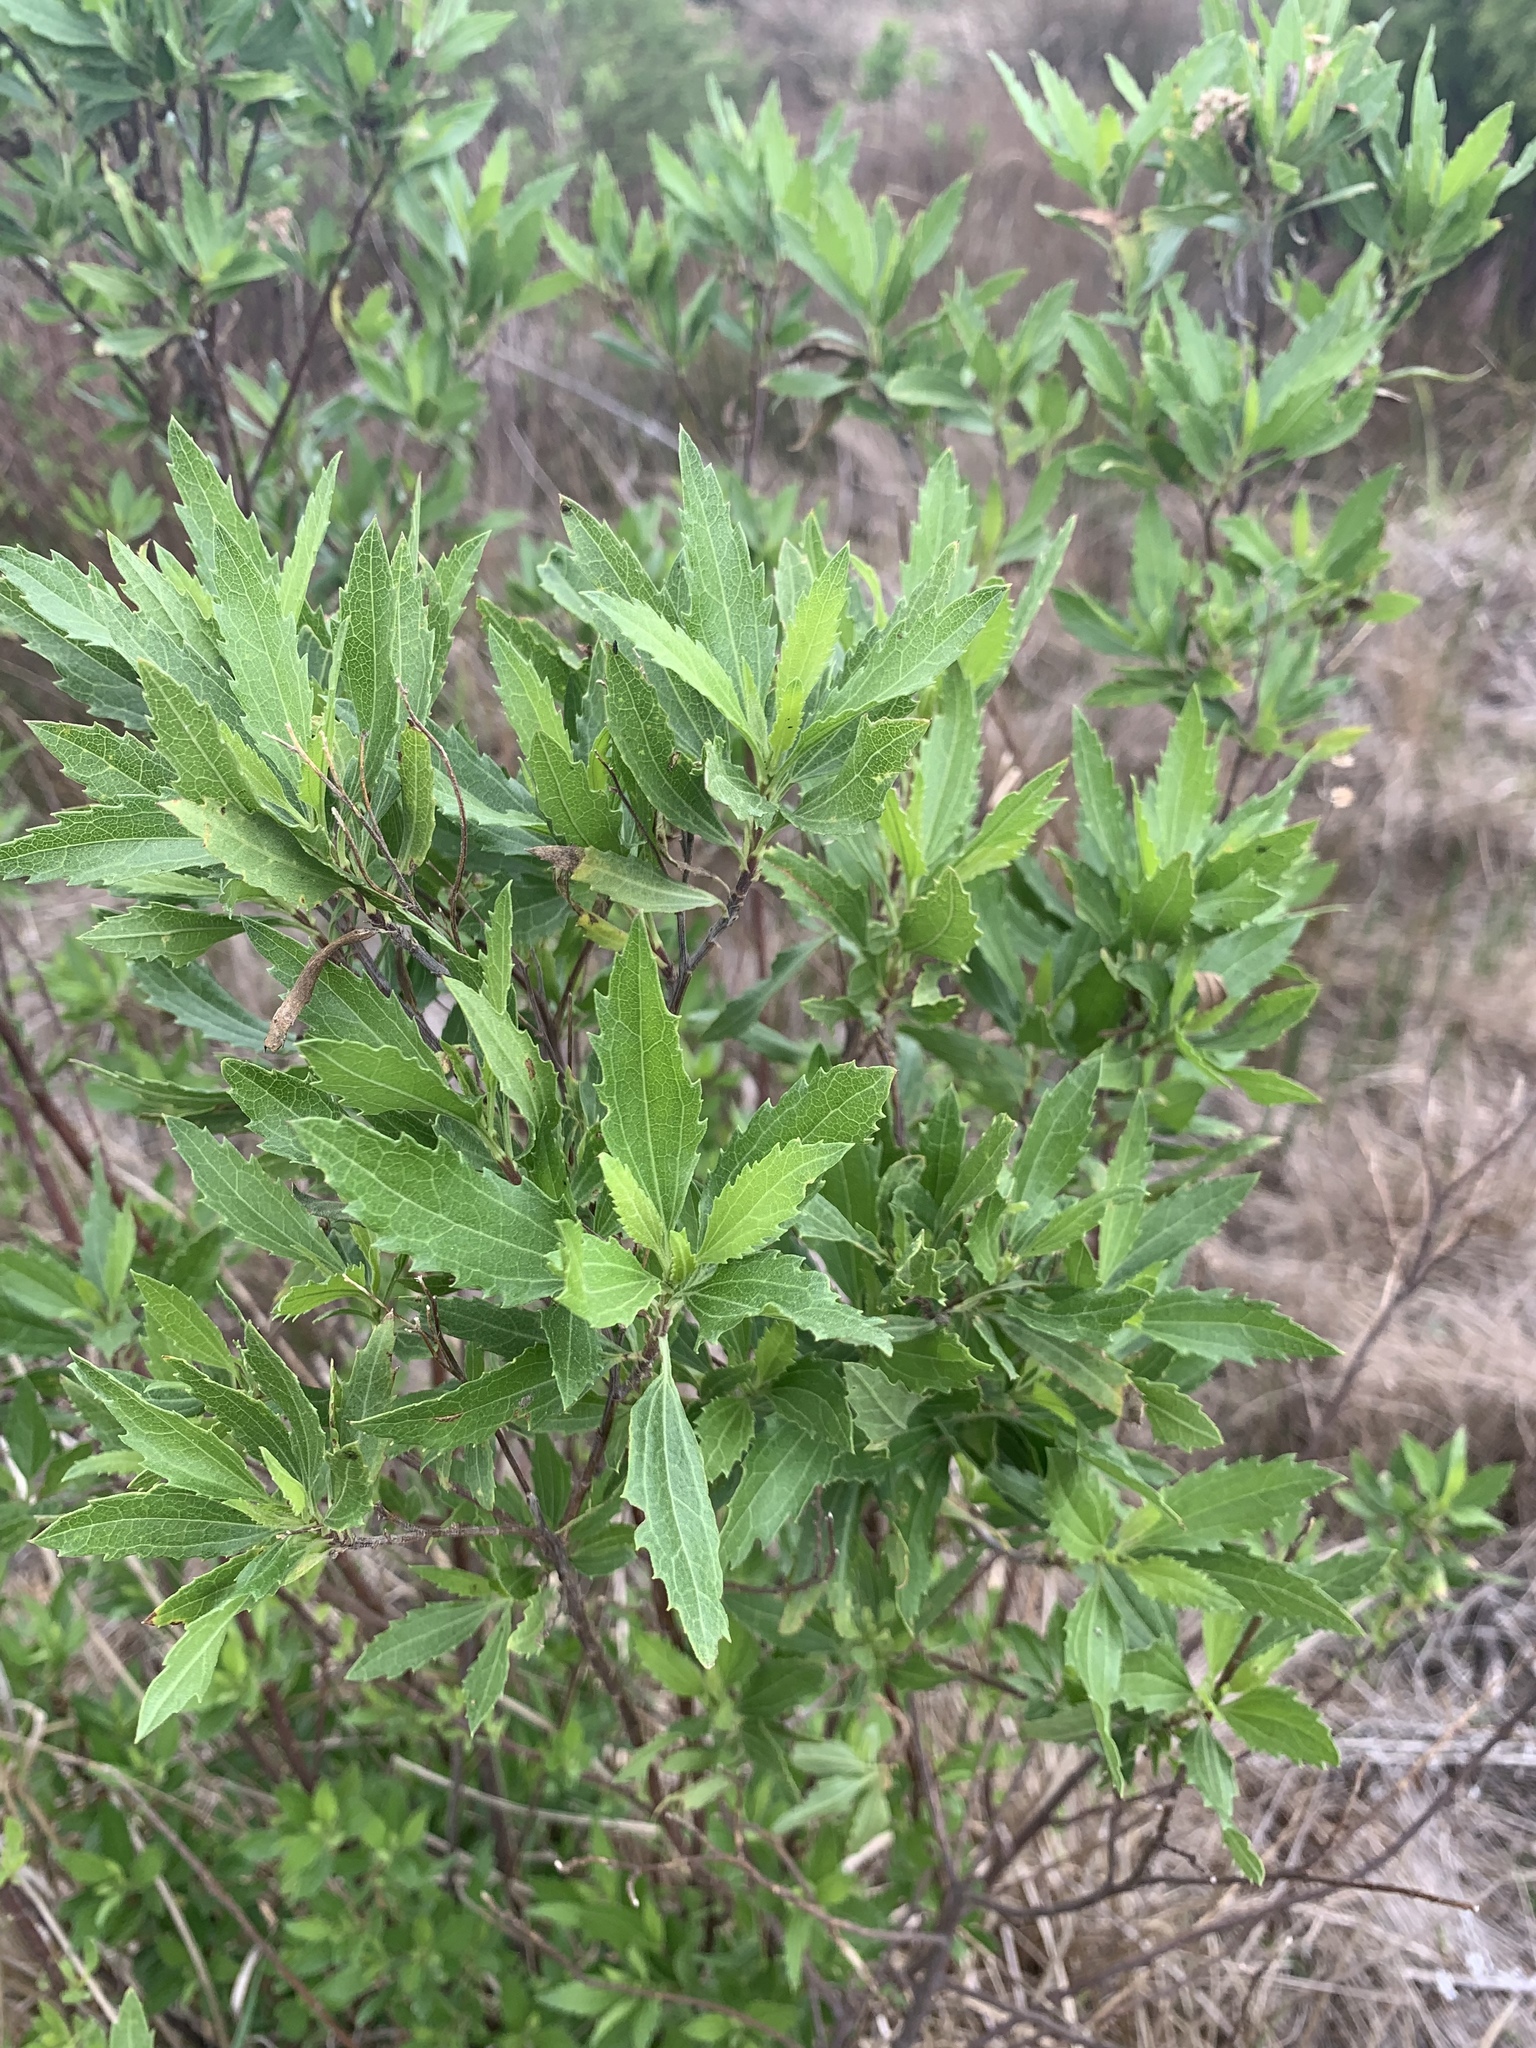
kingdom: Plantae
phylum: Tracheophyta
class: Magnoliopsida
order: Asterales
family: Asteraceae
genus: Nidorella
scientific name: Nidorella ivifolia
